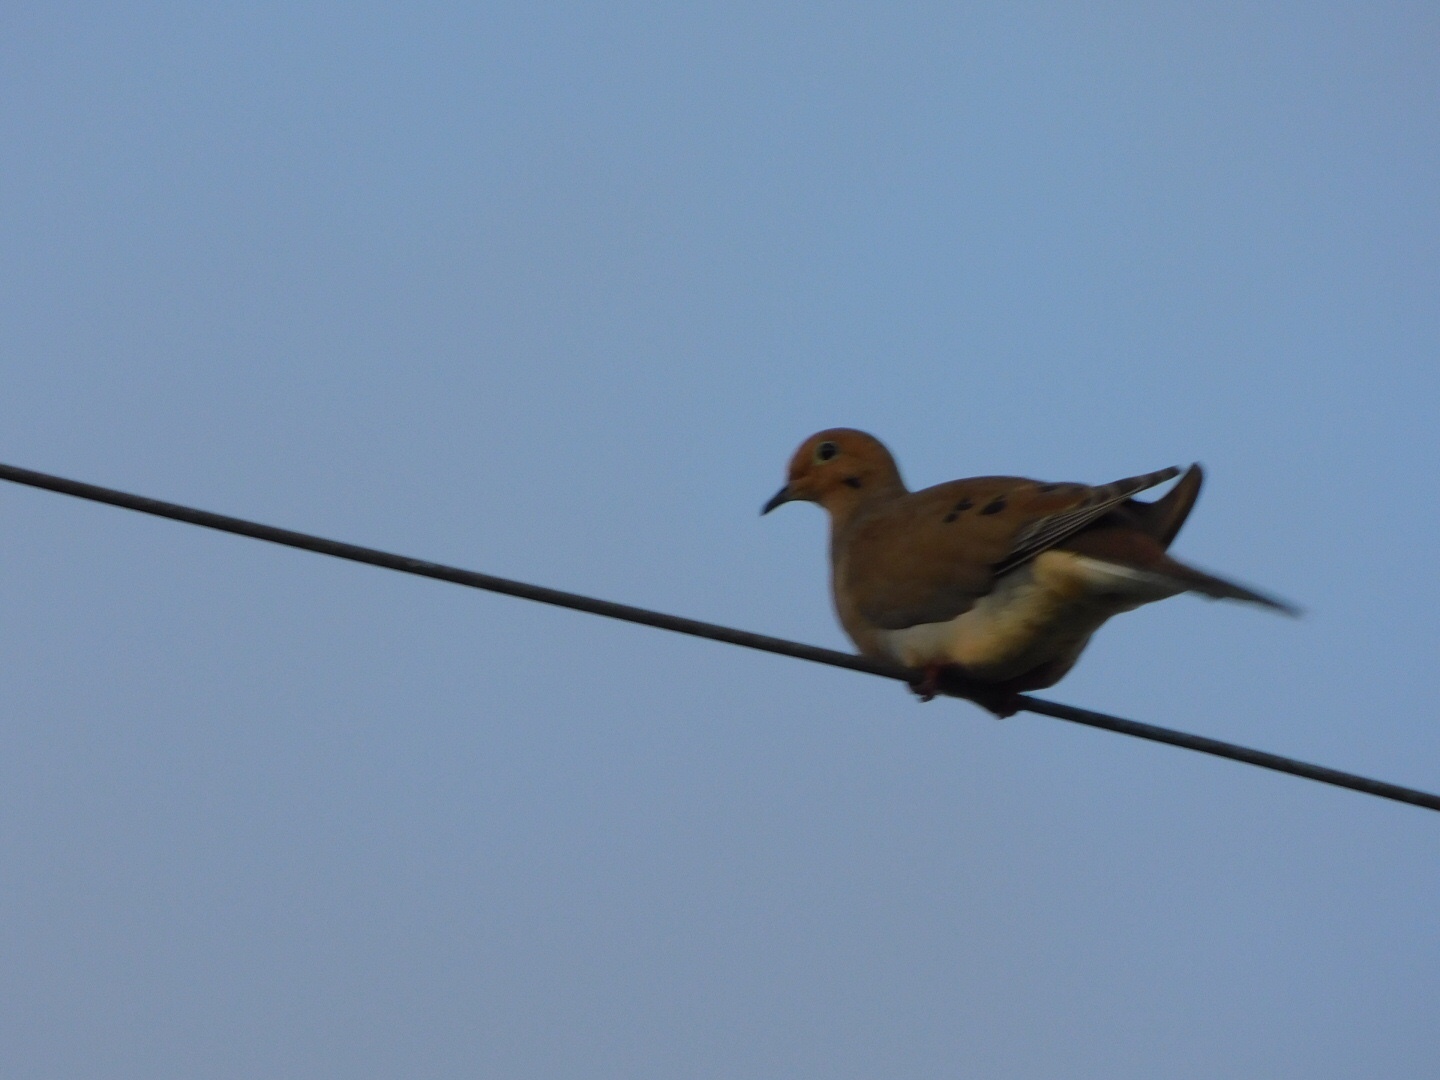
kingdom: Animalia
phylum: Chordata
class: Aves
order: Columbiformes
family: Columbidae
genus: Zenaida
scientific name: Zenaida macroura
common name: Mourning dove
